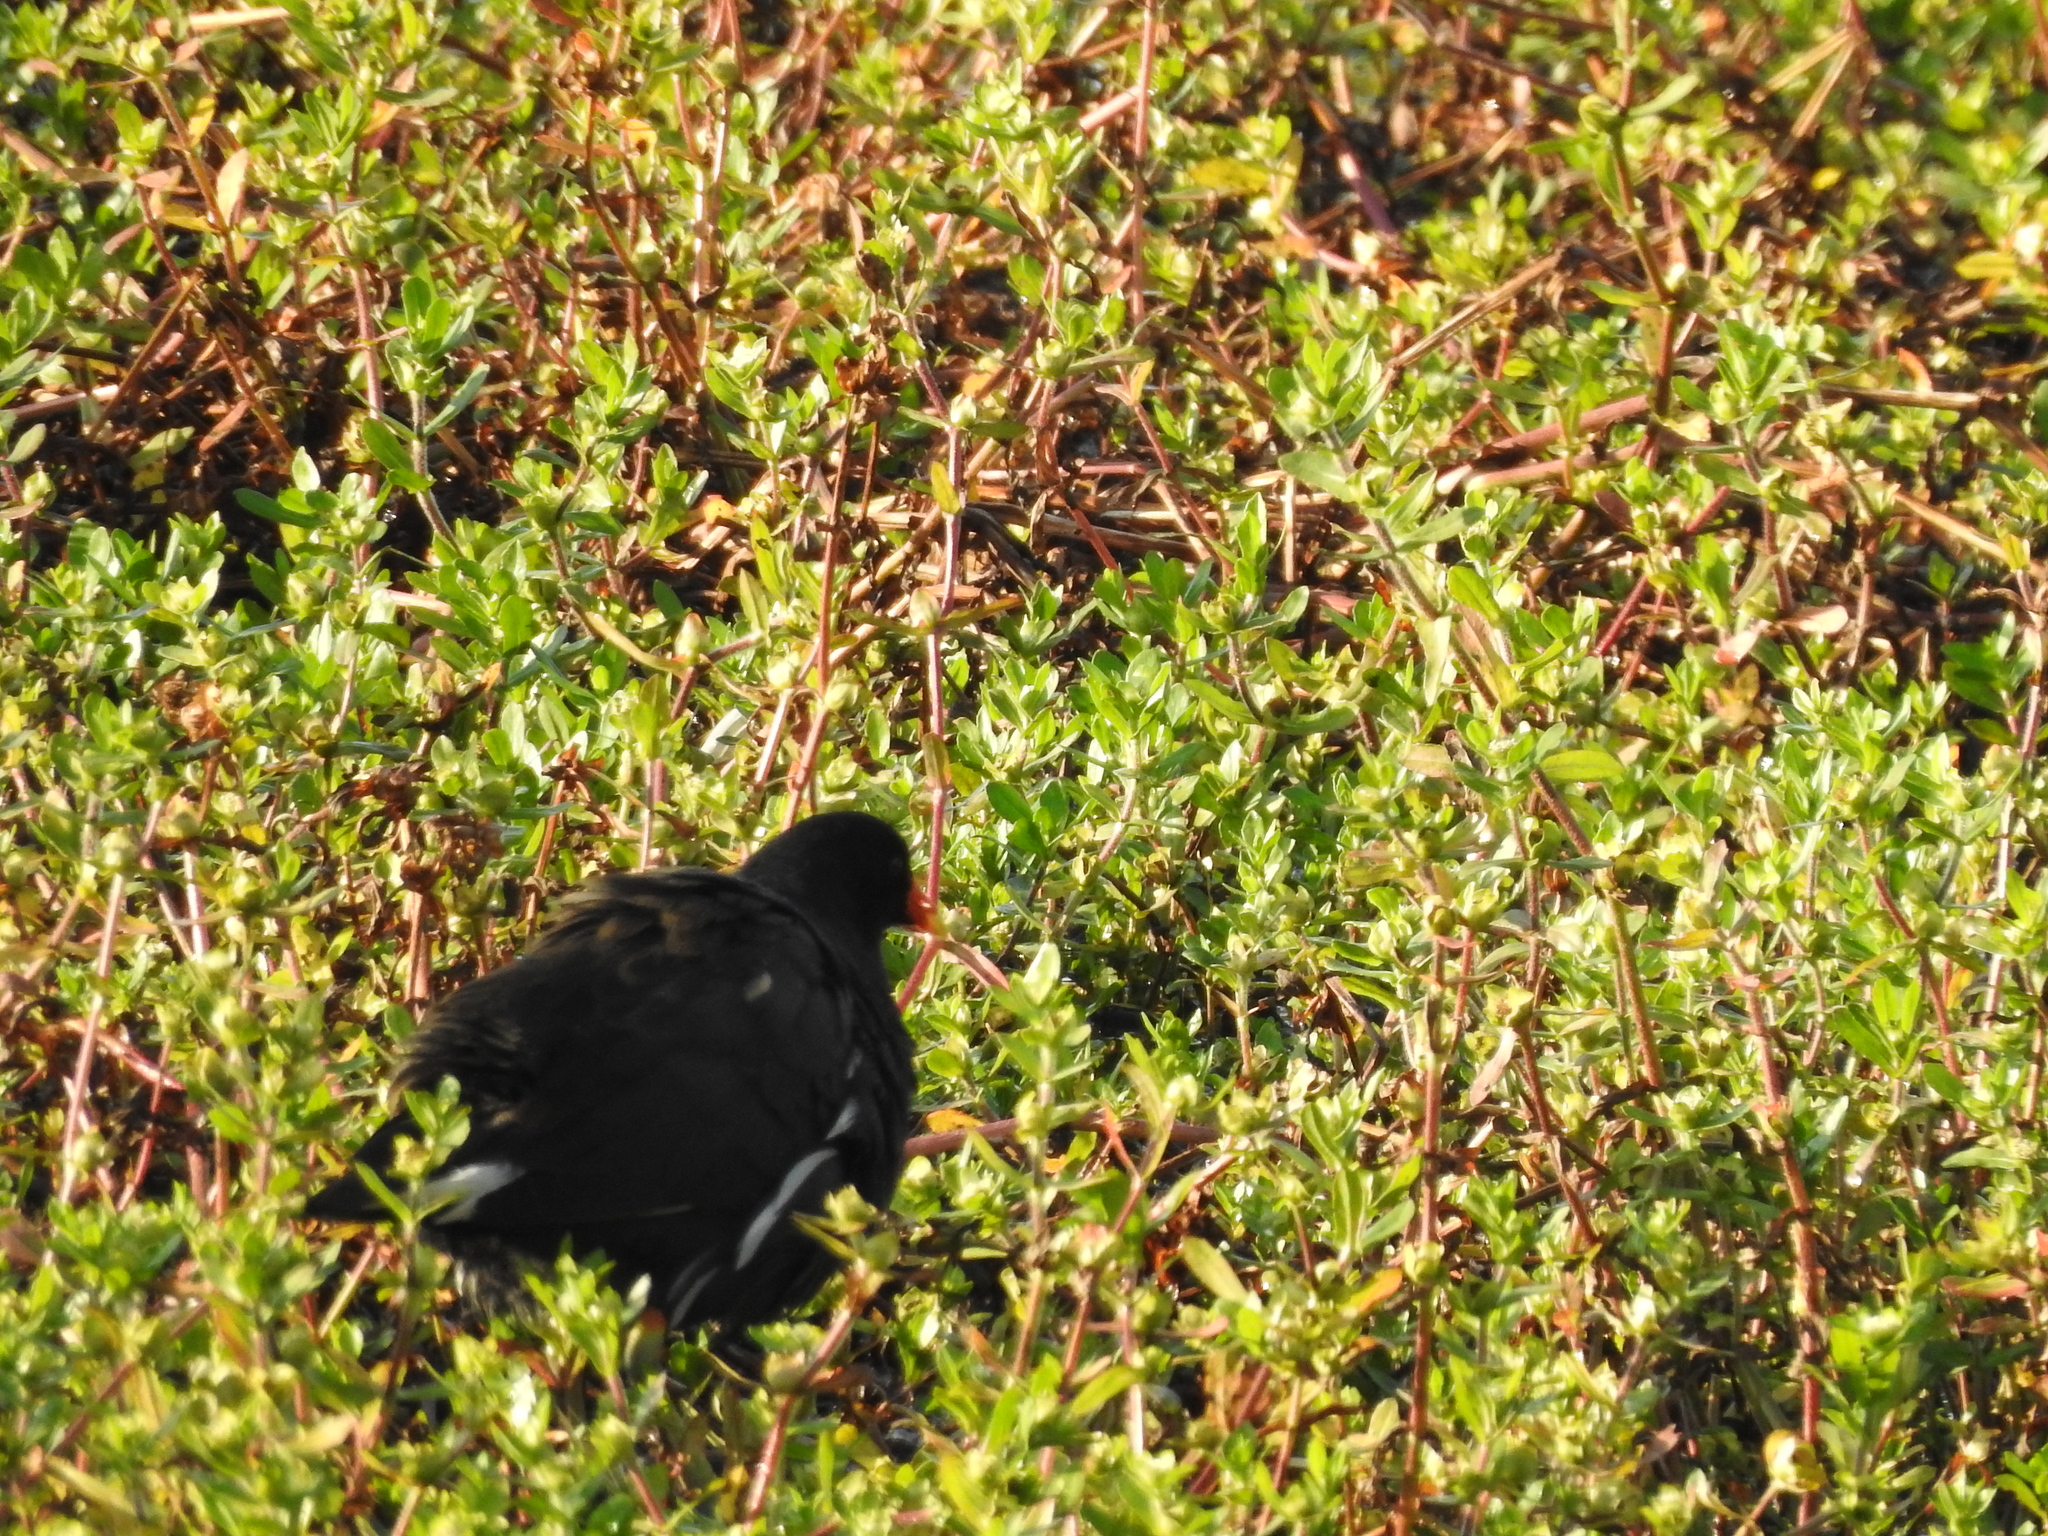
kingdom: Animalia
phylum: Chordata
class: Aves
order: Gruiformes
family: Rallidae
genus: Gallinula
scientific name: Gallinula chloropus
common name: Common moorhen
